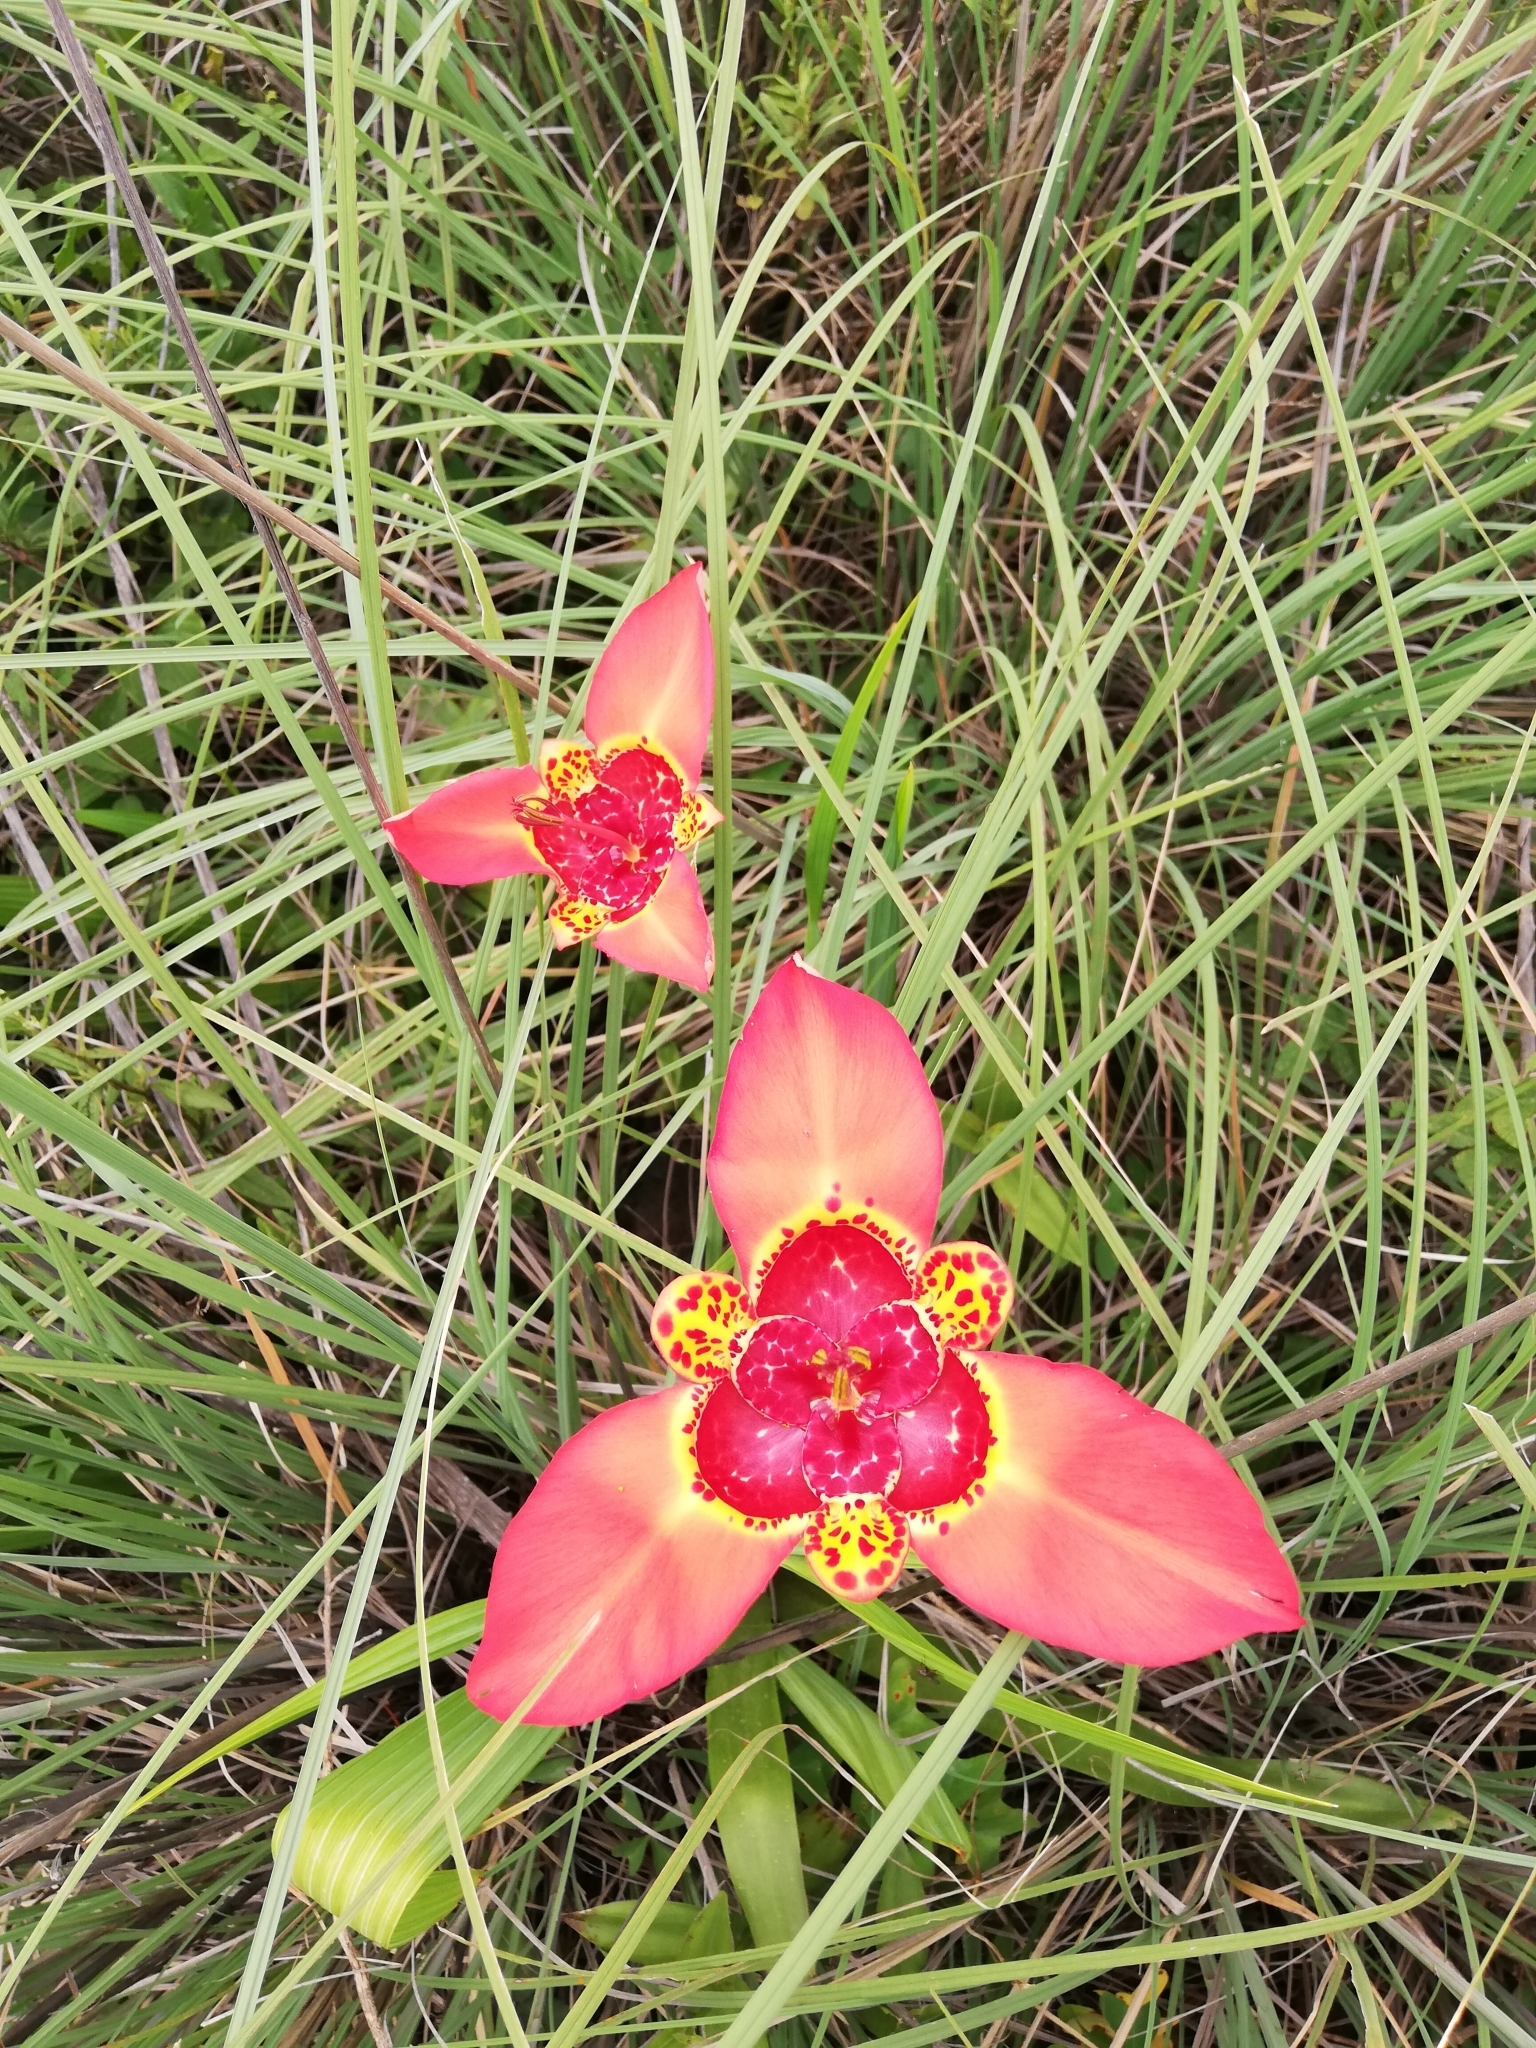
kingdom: Plantae
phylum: Tracheophyta
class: Liliopsida
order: Asparagales
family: Iridaceae
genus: Tigridia
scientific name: Tigridia pavonia
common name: Peacock-flower
